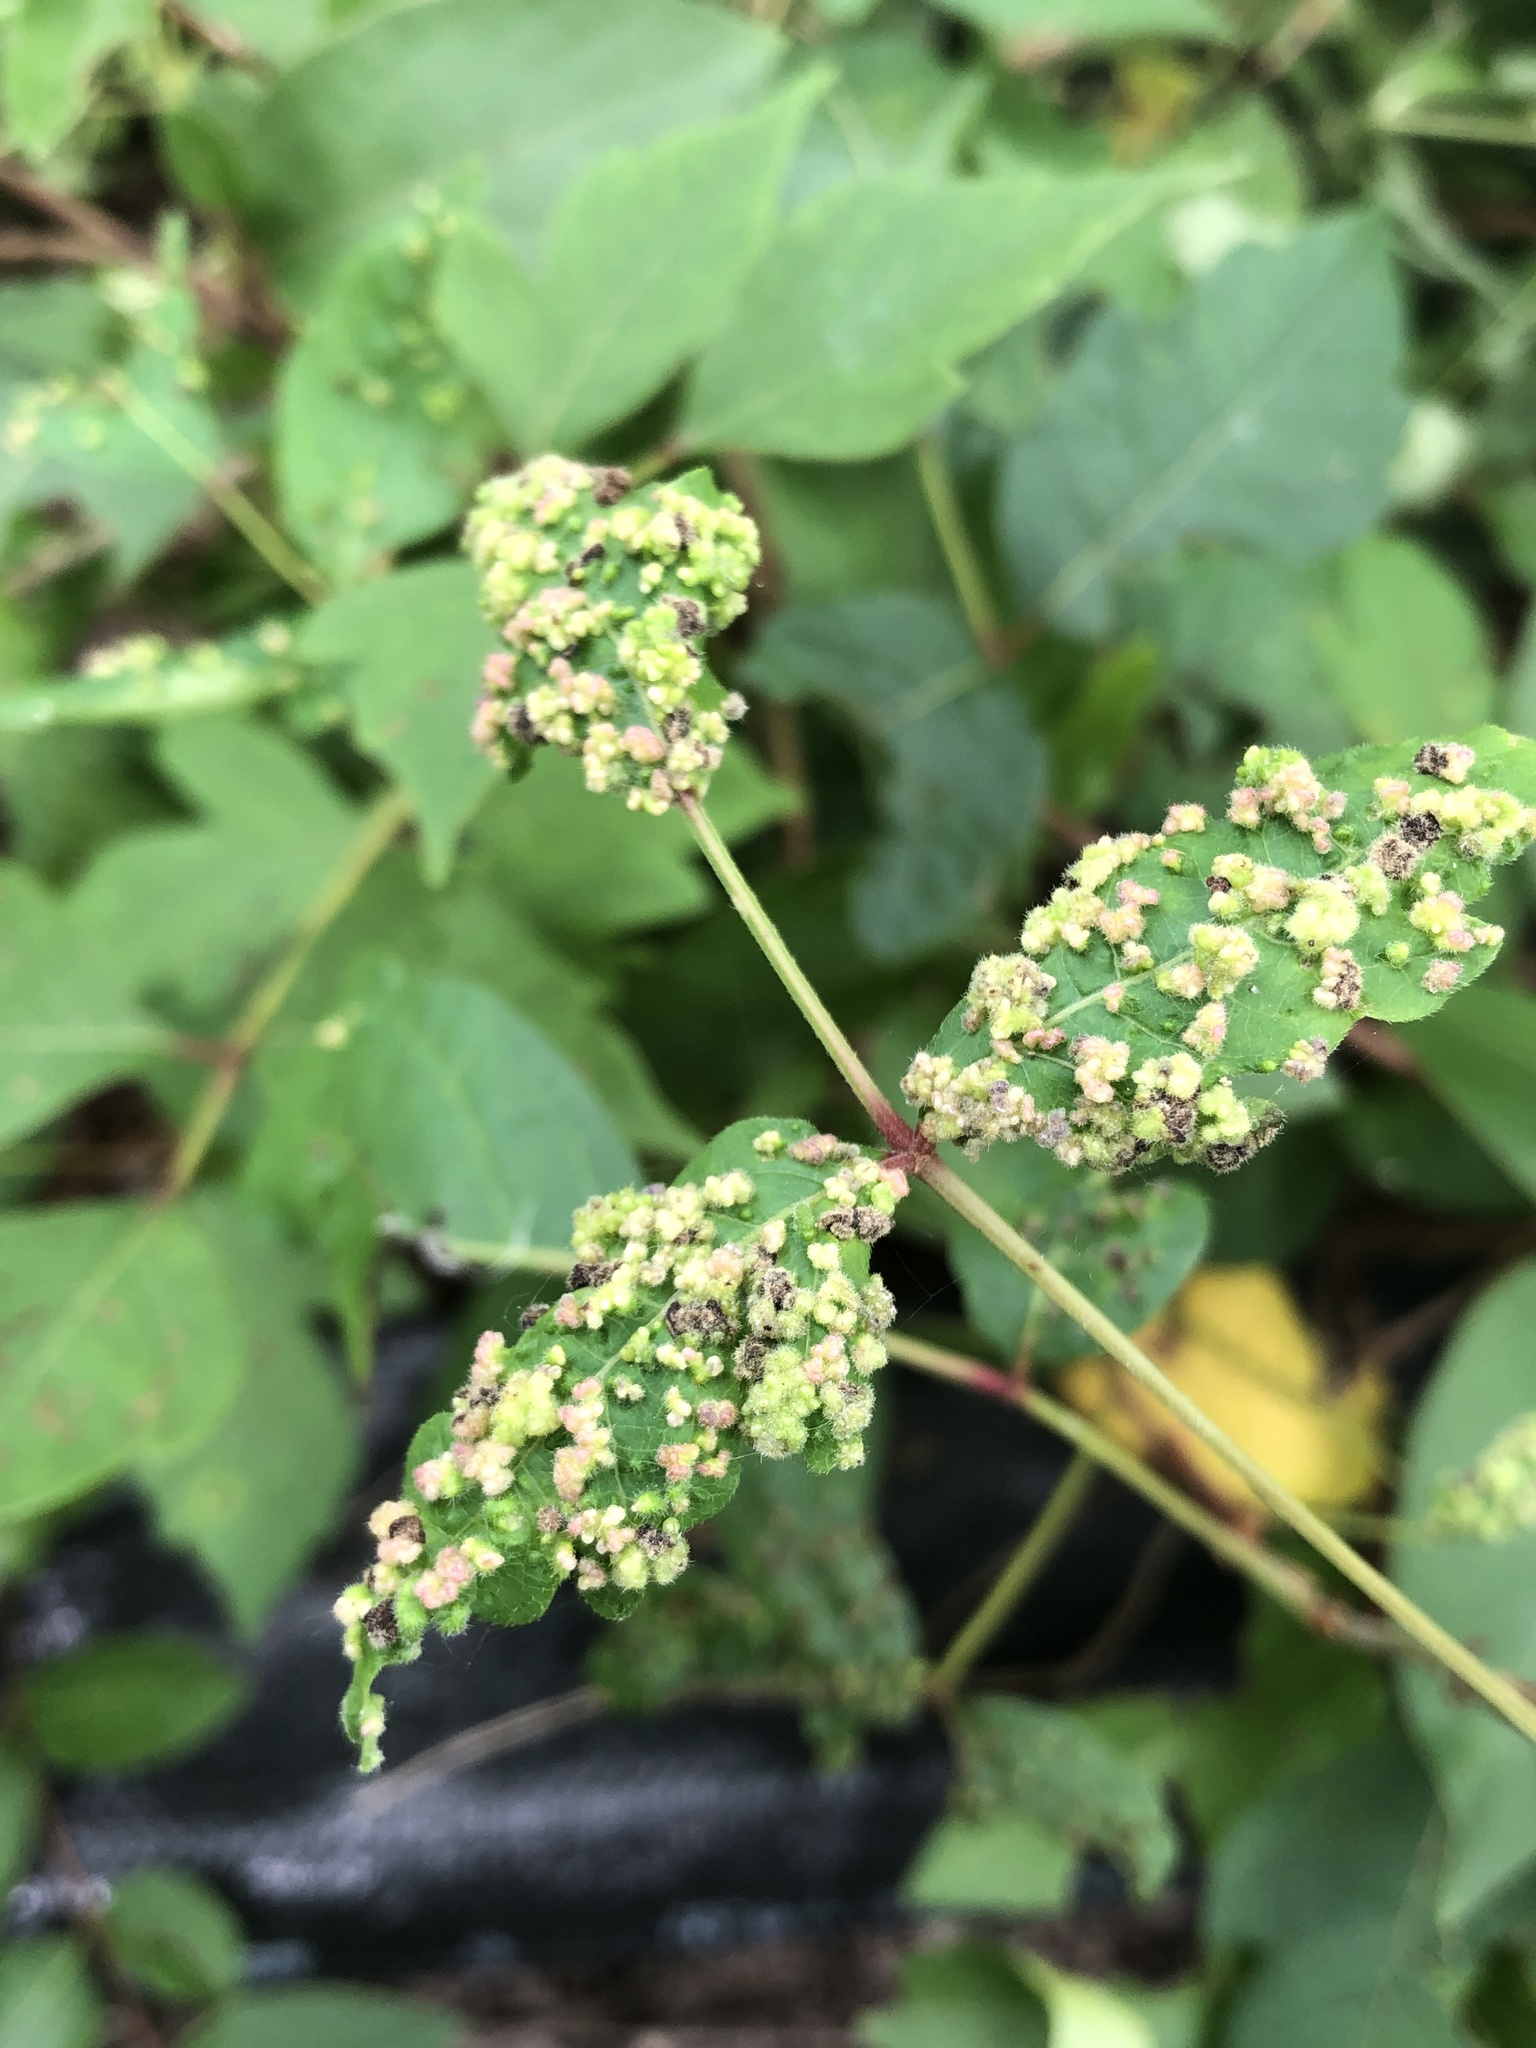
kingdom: Animalia
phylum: Arthropoda
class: Arachnida
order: Trombidiformes
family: Eriophyidae
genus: Aculops
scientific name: Aculops
